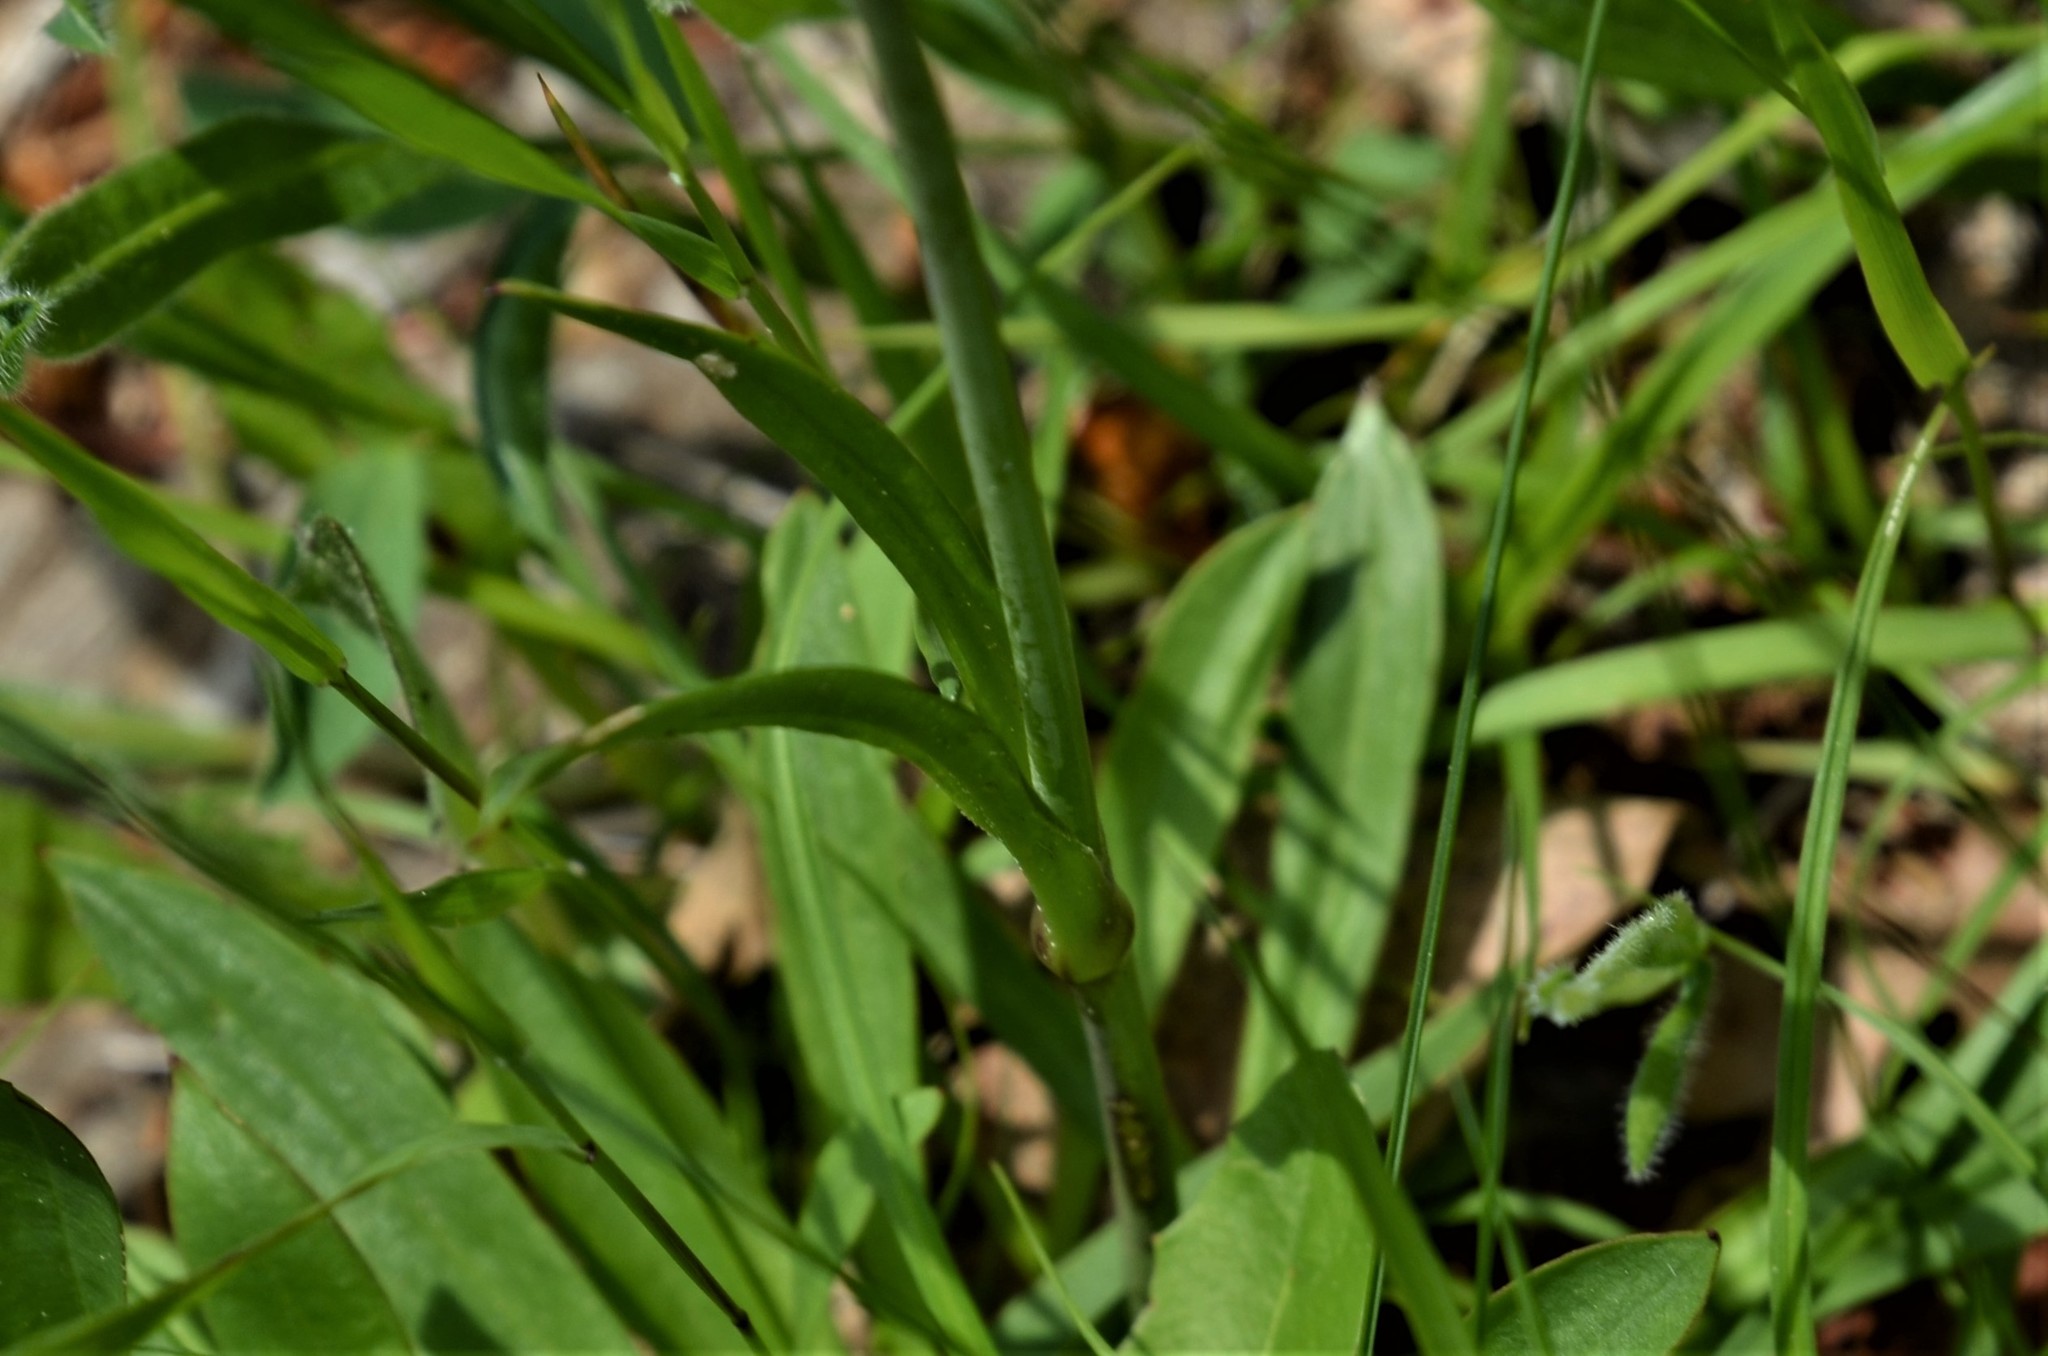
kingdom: Plantae
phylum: Tracheophyta
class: Magnoliopsida
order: Caryophyllales
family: Caryophyllaceae
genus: Viscaria
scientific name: Viscaria vulgaris
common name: Clammy campion
